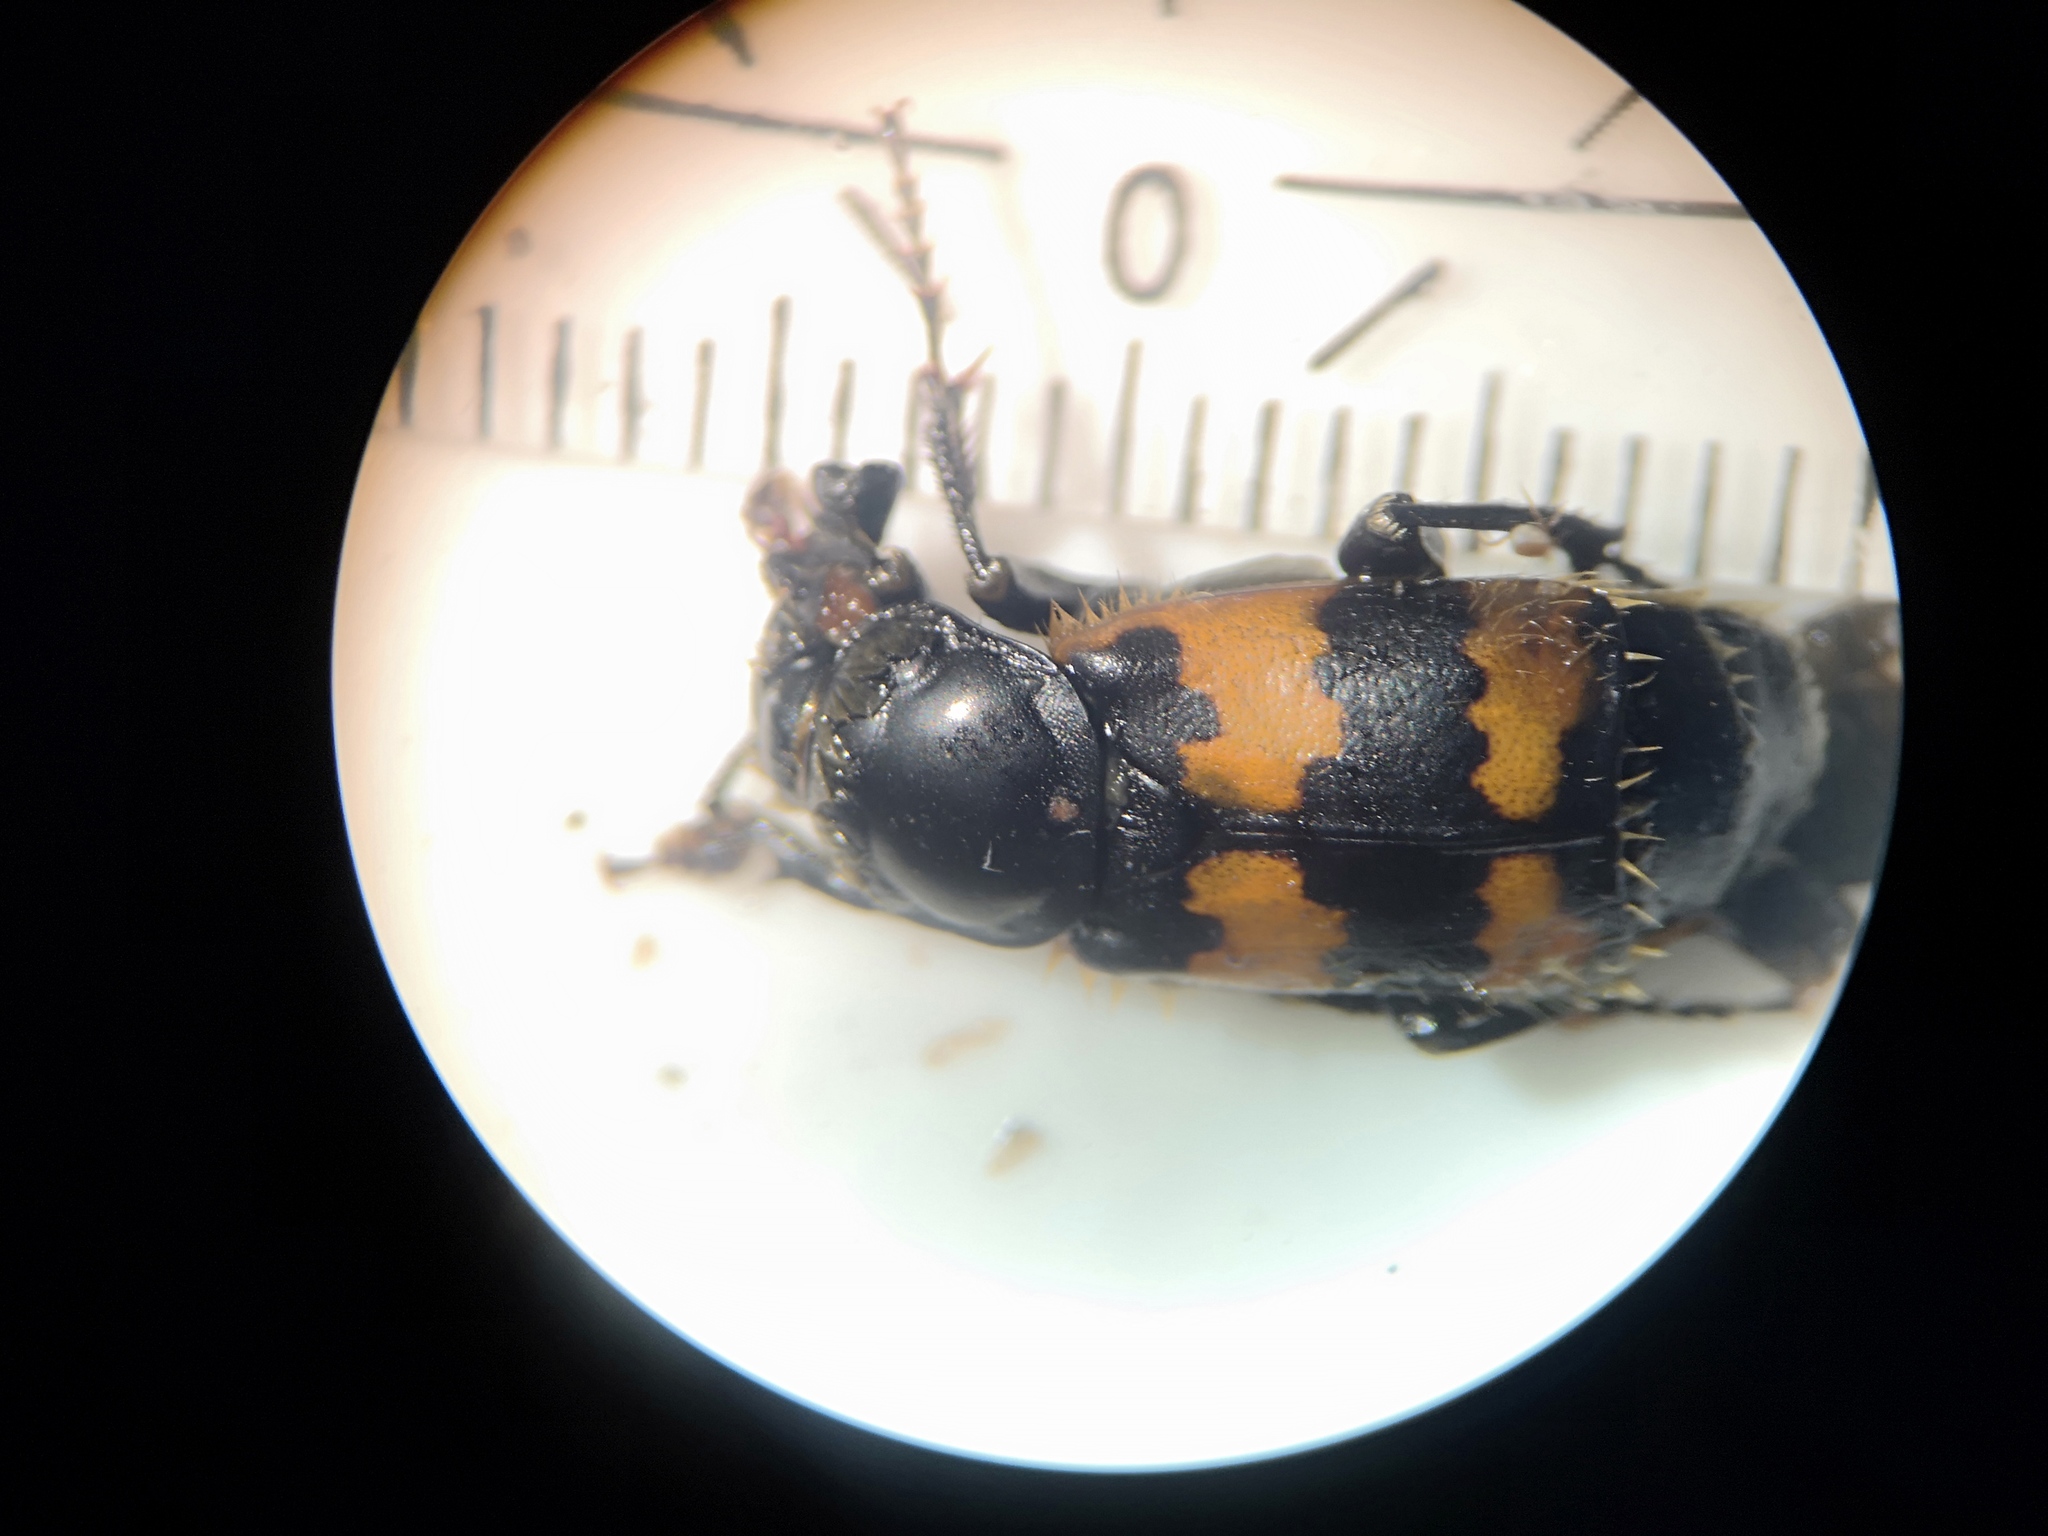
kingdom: Animalia
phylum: Arthropoda
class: Insecta
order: Coleoptera
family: Staphylinidae
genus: Nicrophorus
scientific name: Nicrophorus vespillo
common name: Common burying beetle
